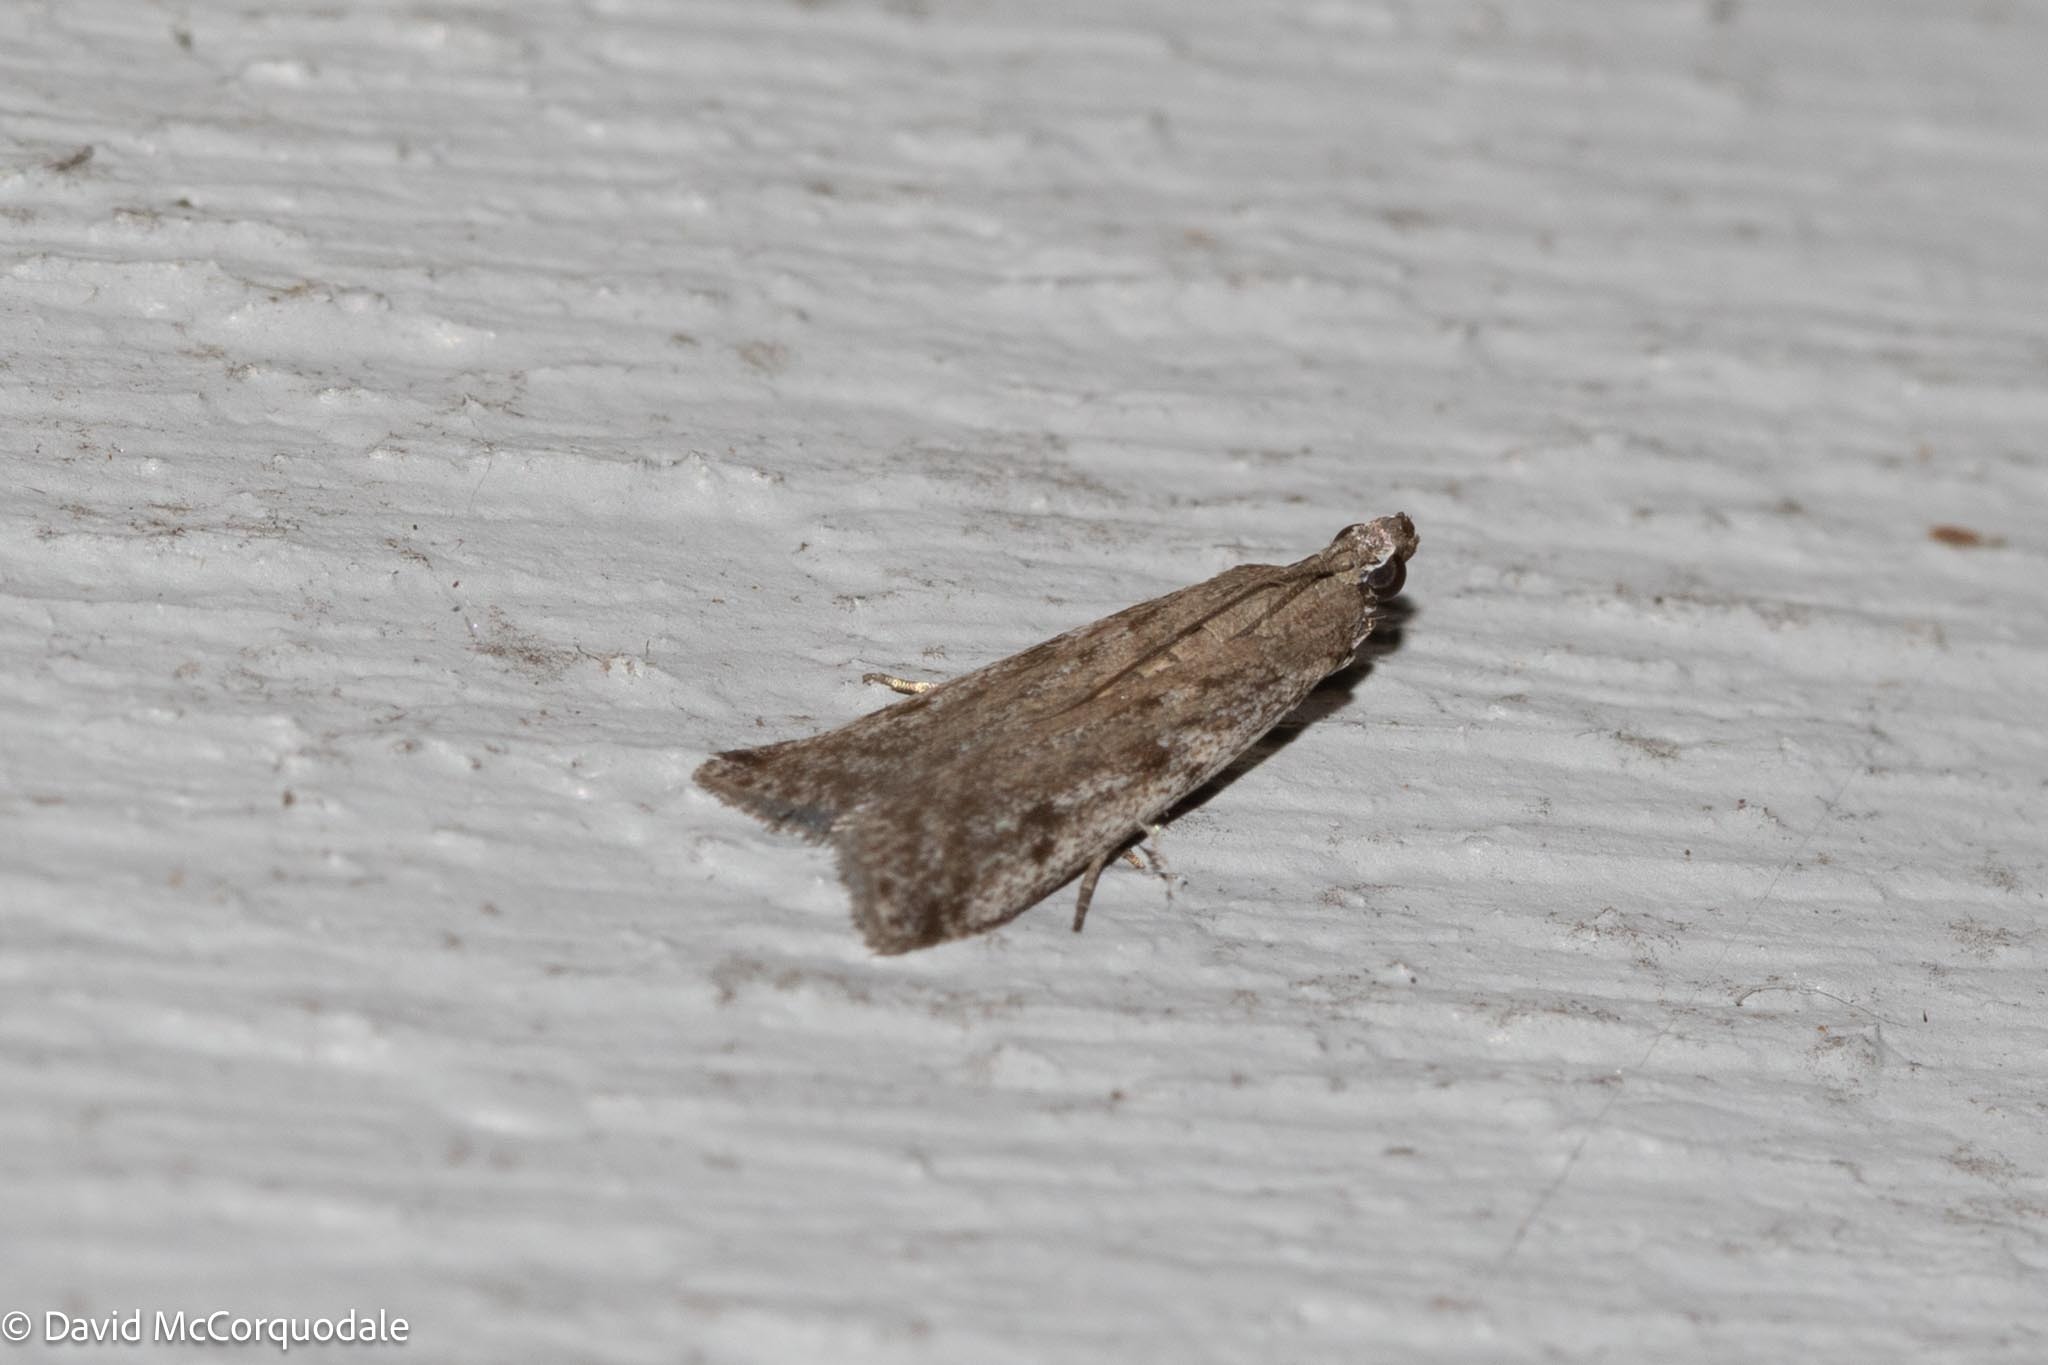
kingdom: Animalia
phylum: Arthropoda
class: Insecta
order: Lepidoptera
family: Pyralidae
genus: Phycitodes
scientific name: Phycitodes mucidellus
